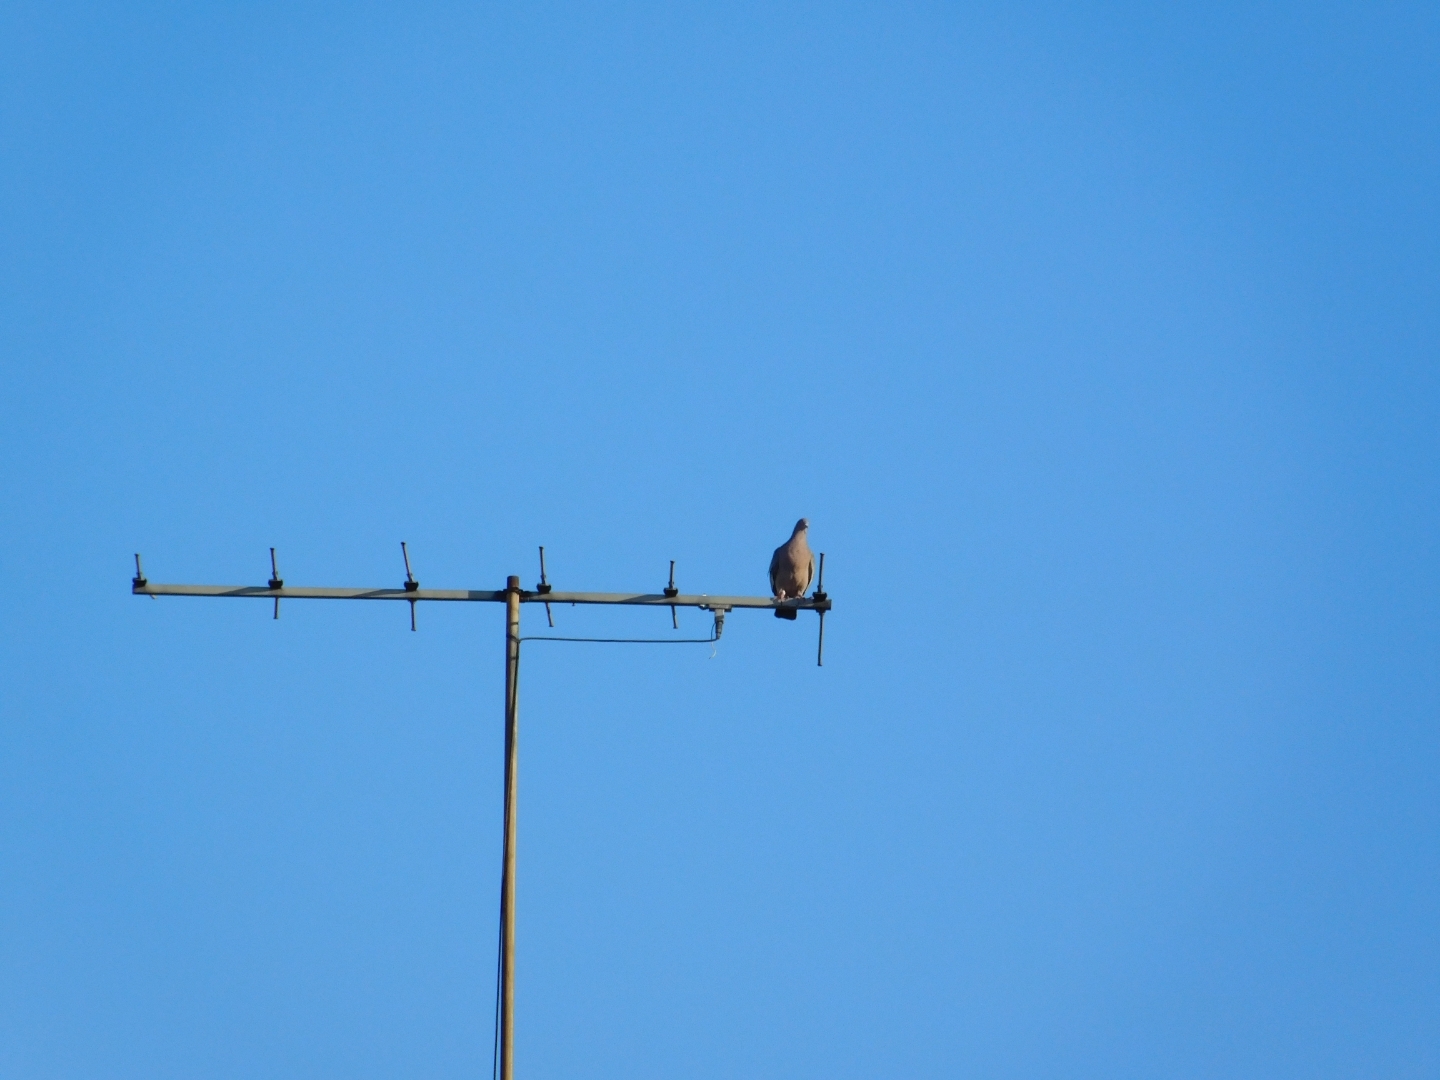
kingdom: Animalia
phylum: Chordata
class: Aves
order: Columbiformes
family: Columbidae
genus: Patagioenas
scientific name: Patagioenas picazuro
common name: Picazuro pigeon
